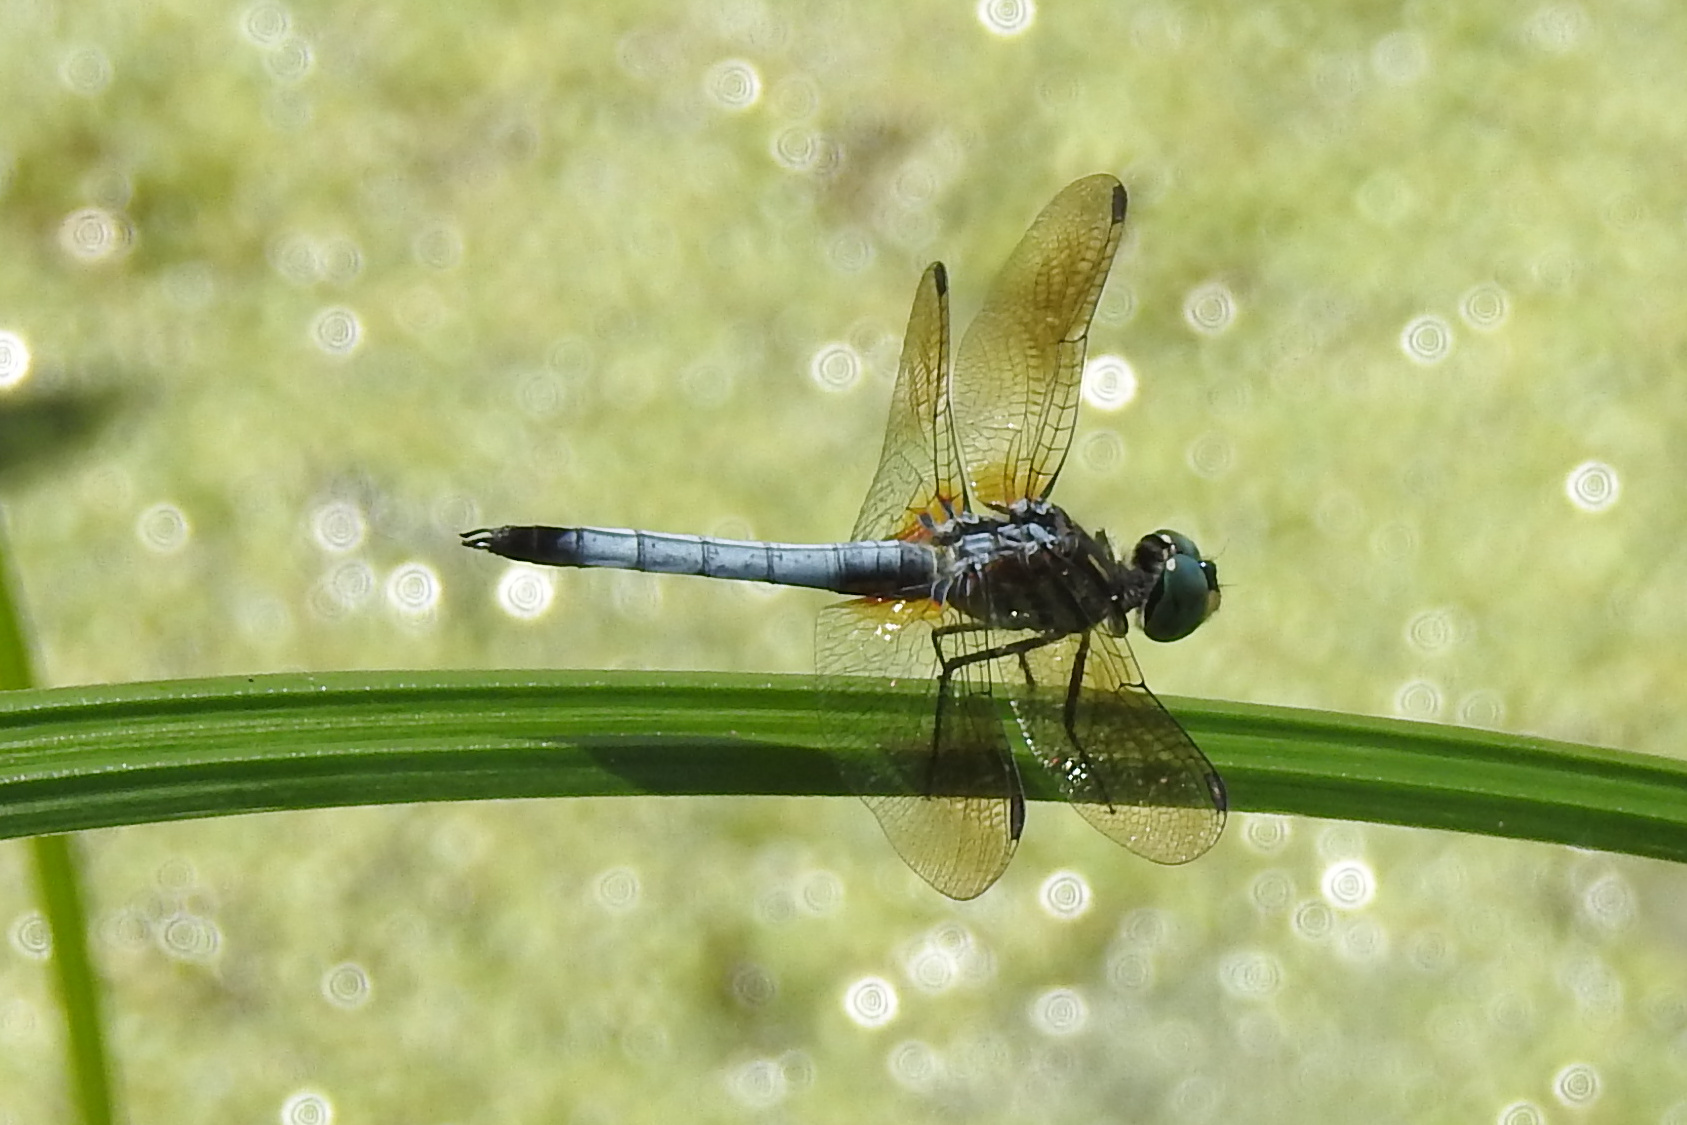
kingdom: Animalia
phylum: Arthropoda
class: Insecta
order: Odonata
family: Libellulidae
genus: Pachydiplax
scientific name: Pachydiplax longipennis
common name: Blue dasher
